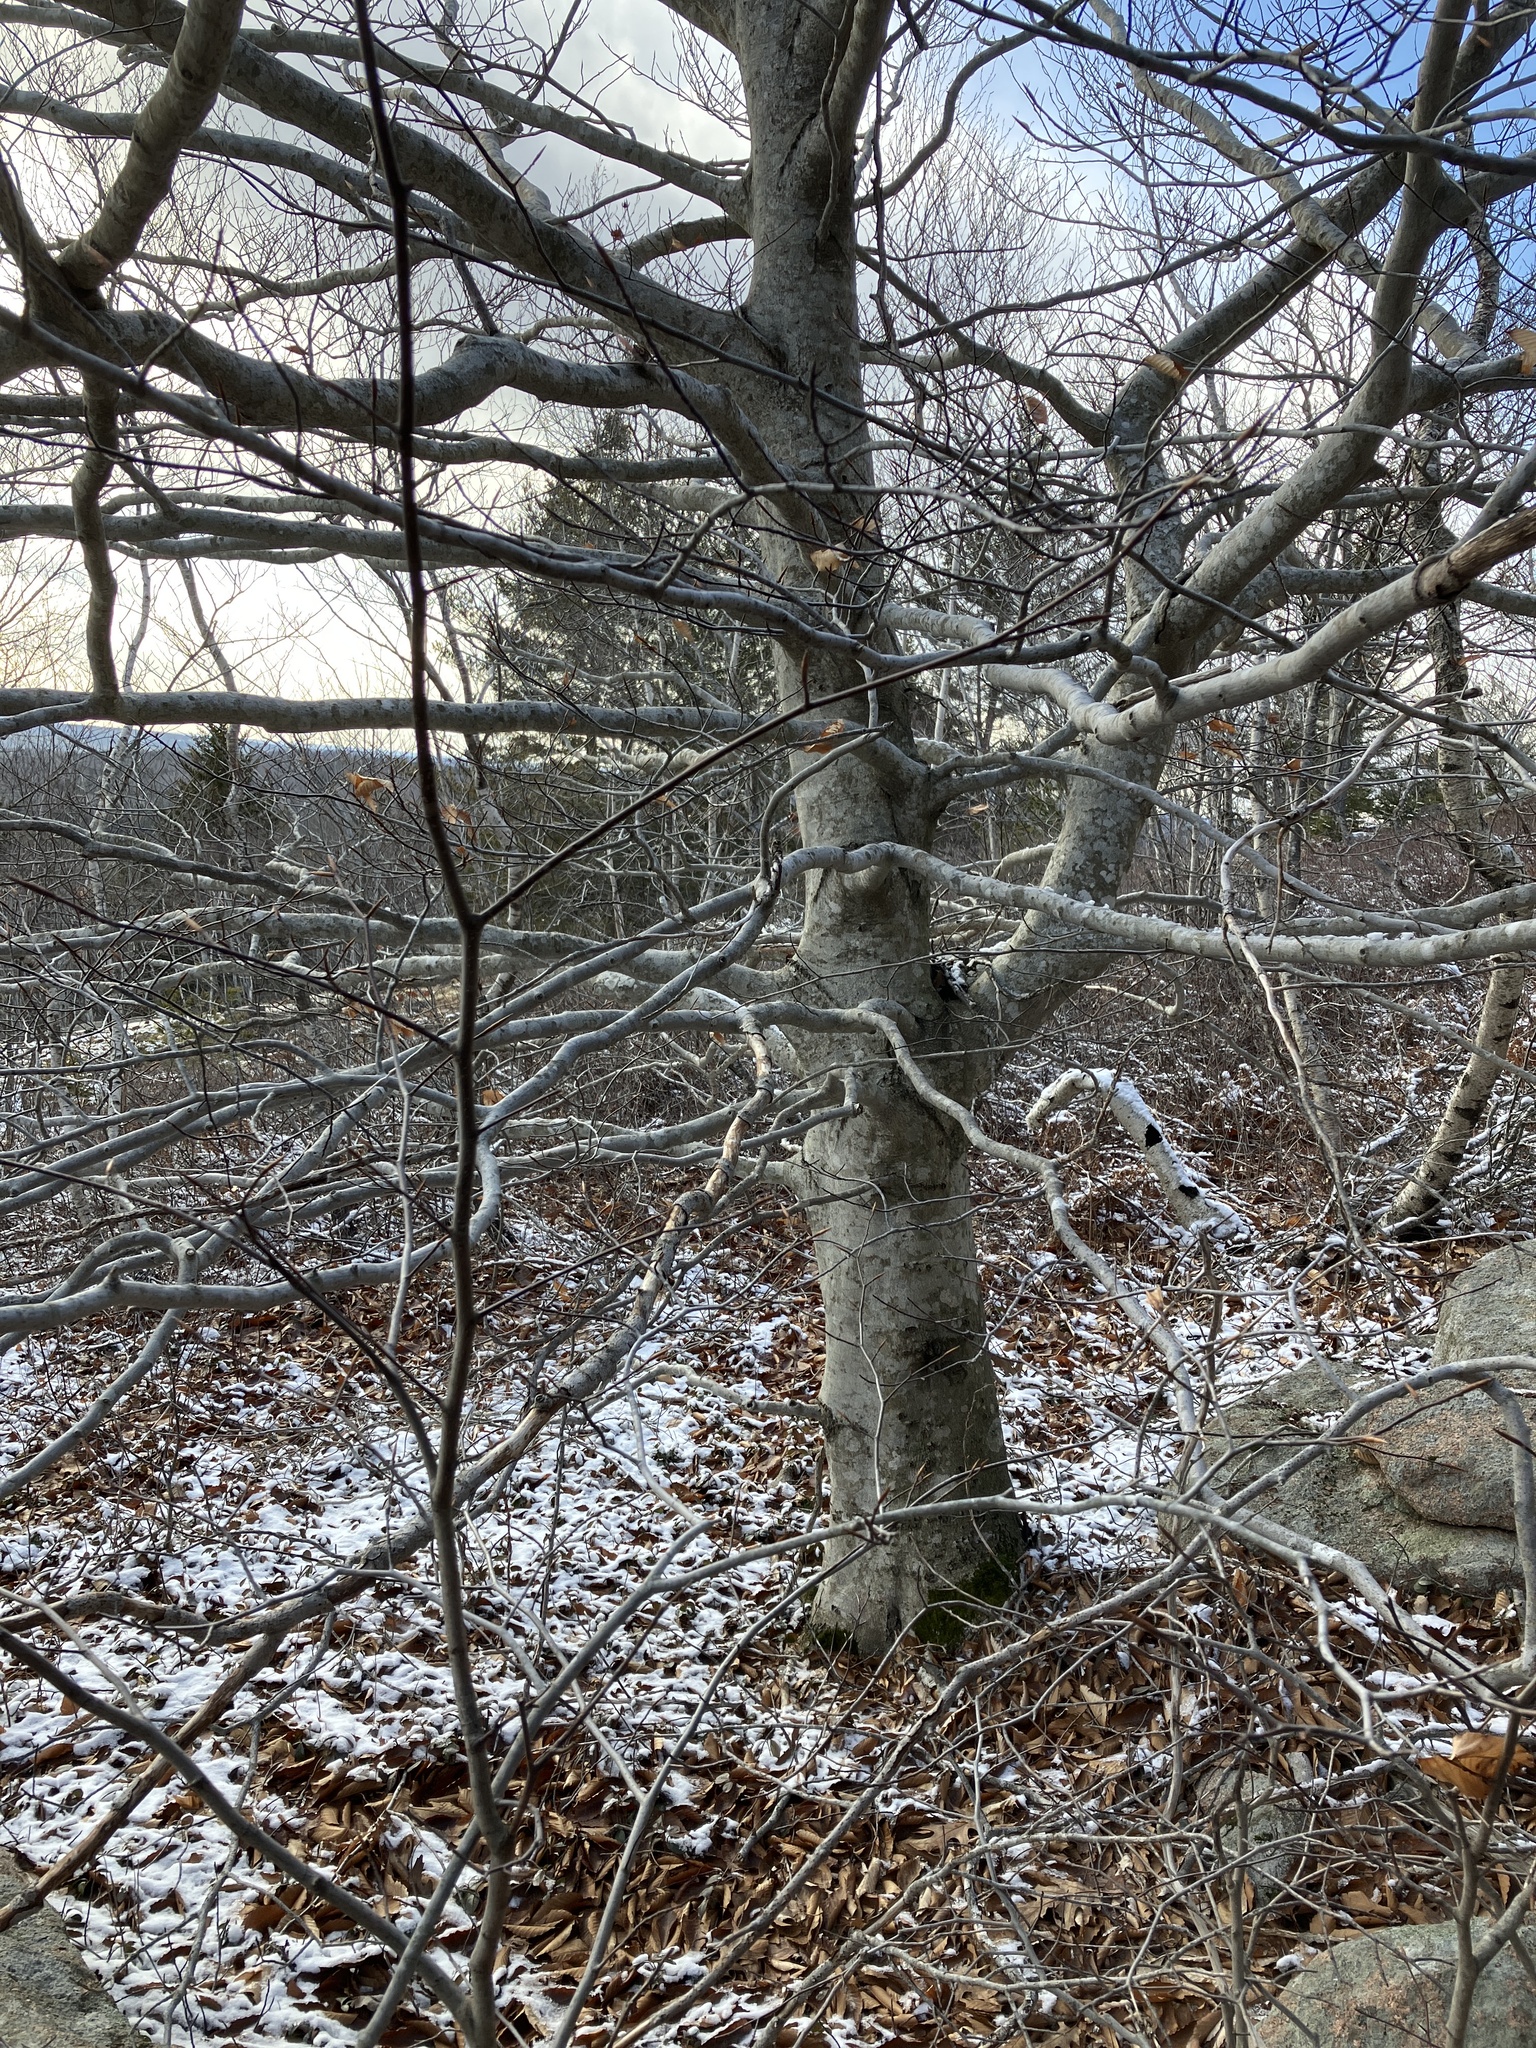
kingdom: Plantae
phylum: Tracheophyta
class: Magnoliopsida
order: Fagales
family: Fagaceae
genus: Fagus
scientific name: Fagus grandifolia
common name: American beech
